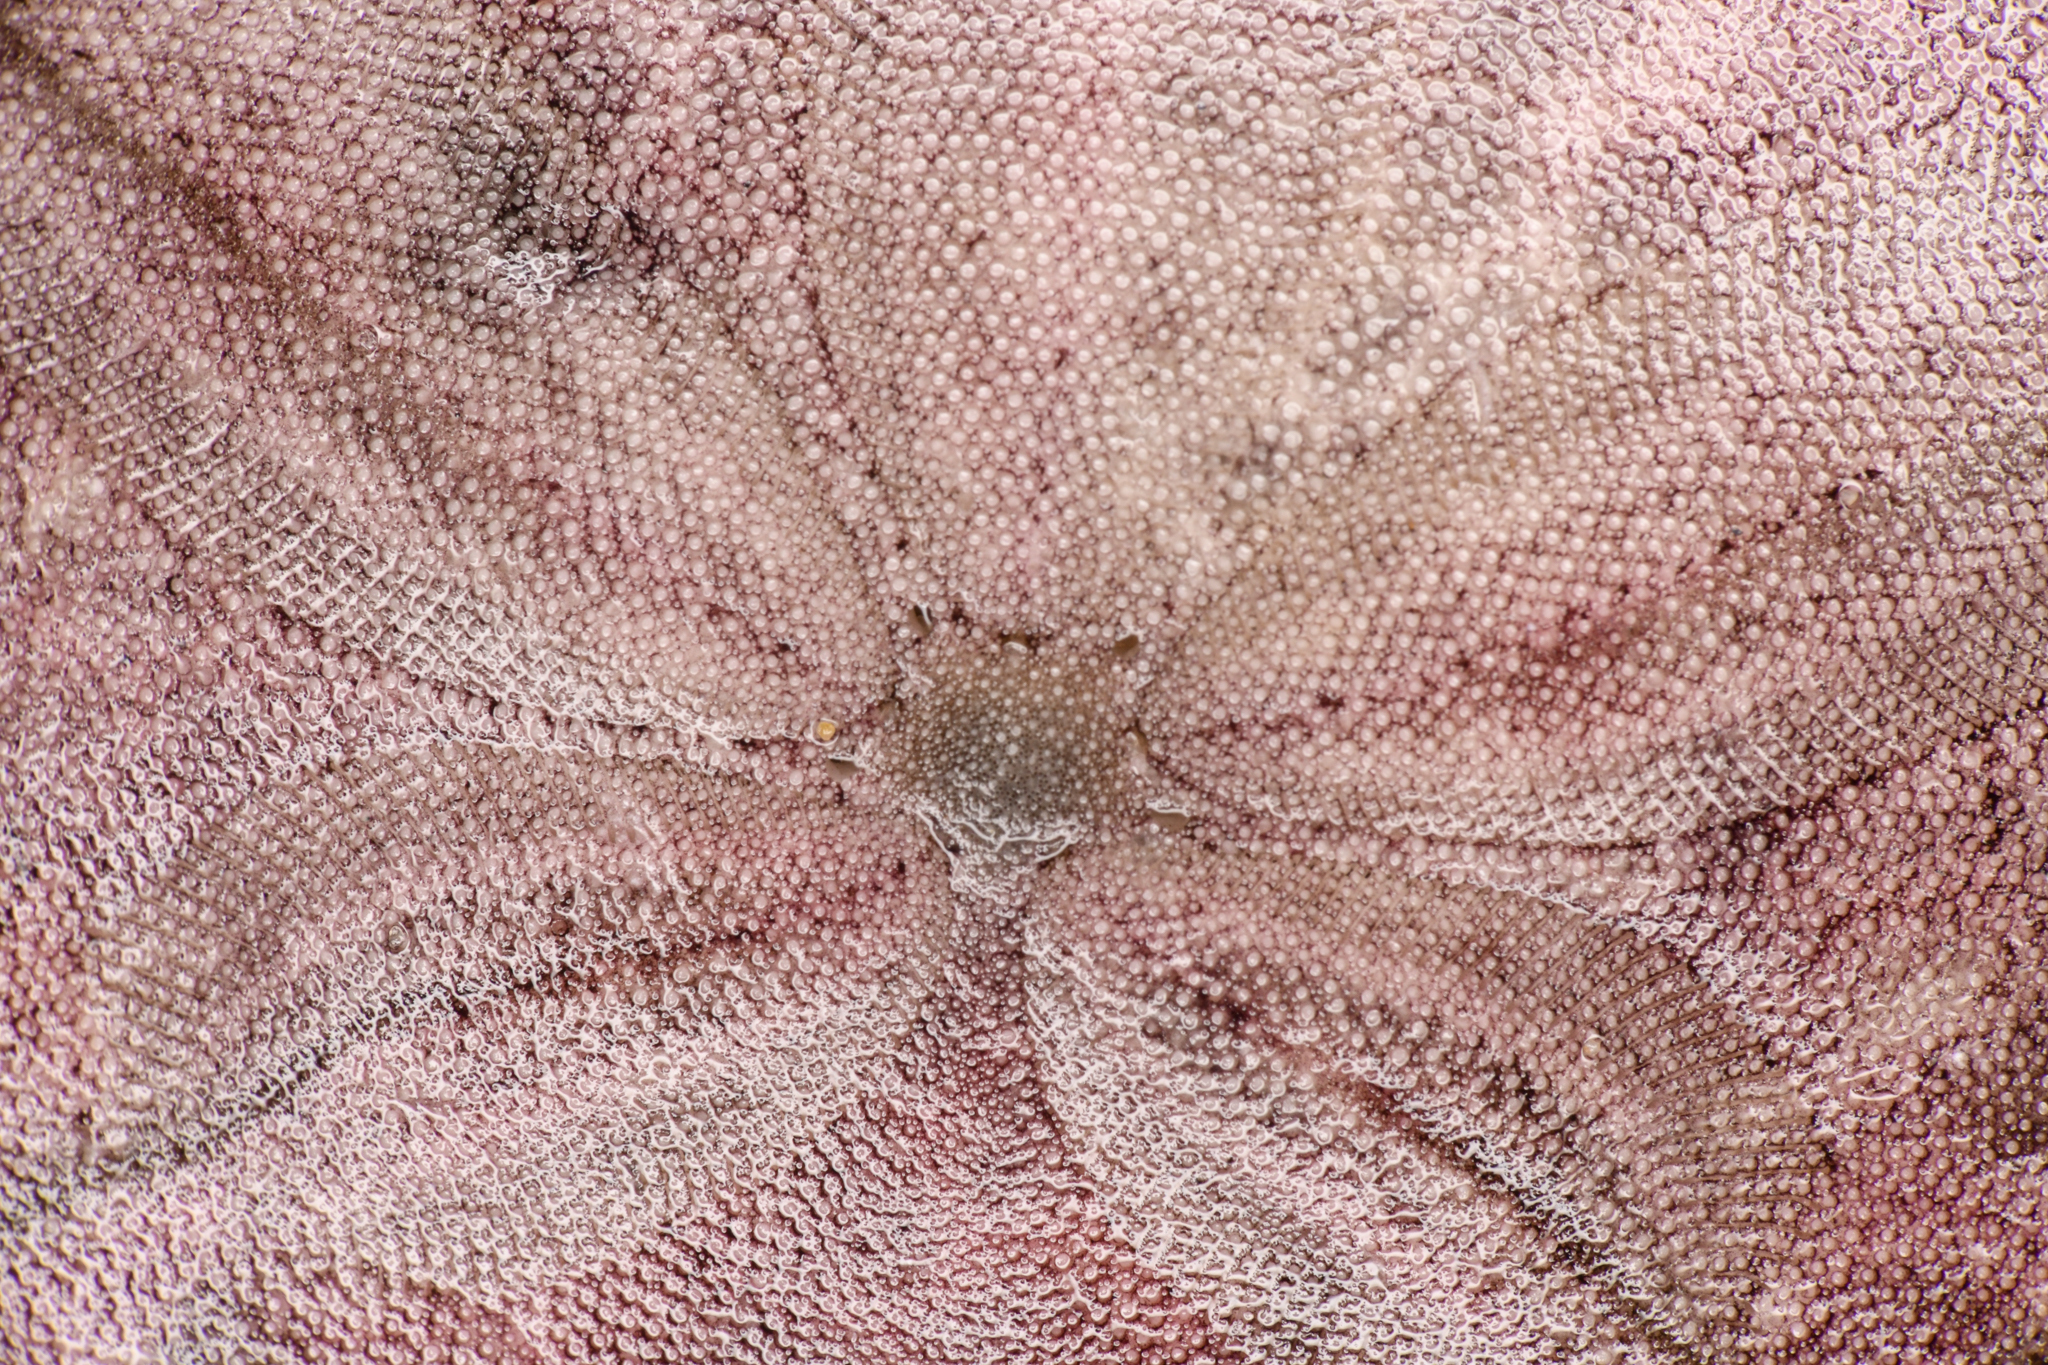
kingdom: Animalia
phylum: Echinodermata
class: Echinoidea
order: Echinolampadacea
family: Dendrasteridae
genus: Dendraster
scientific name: Dendraster excentricus
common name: Eccentric sand dollar sea urchin
